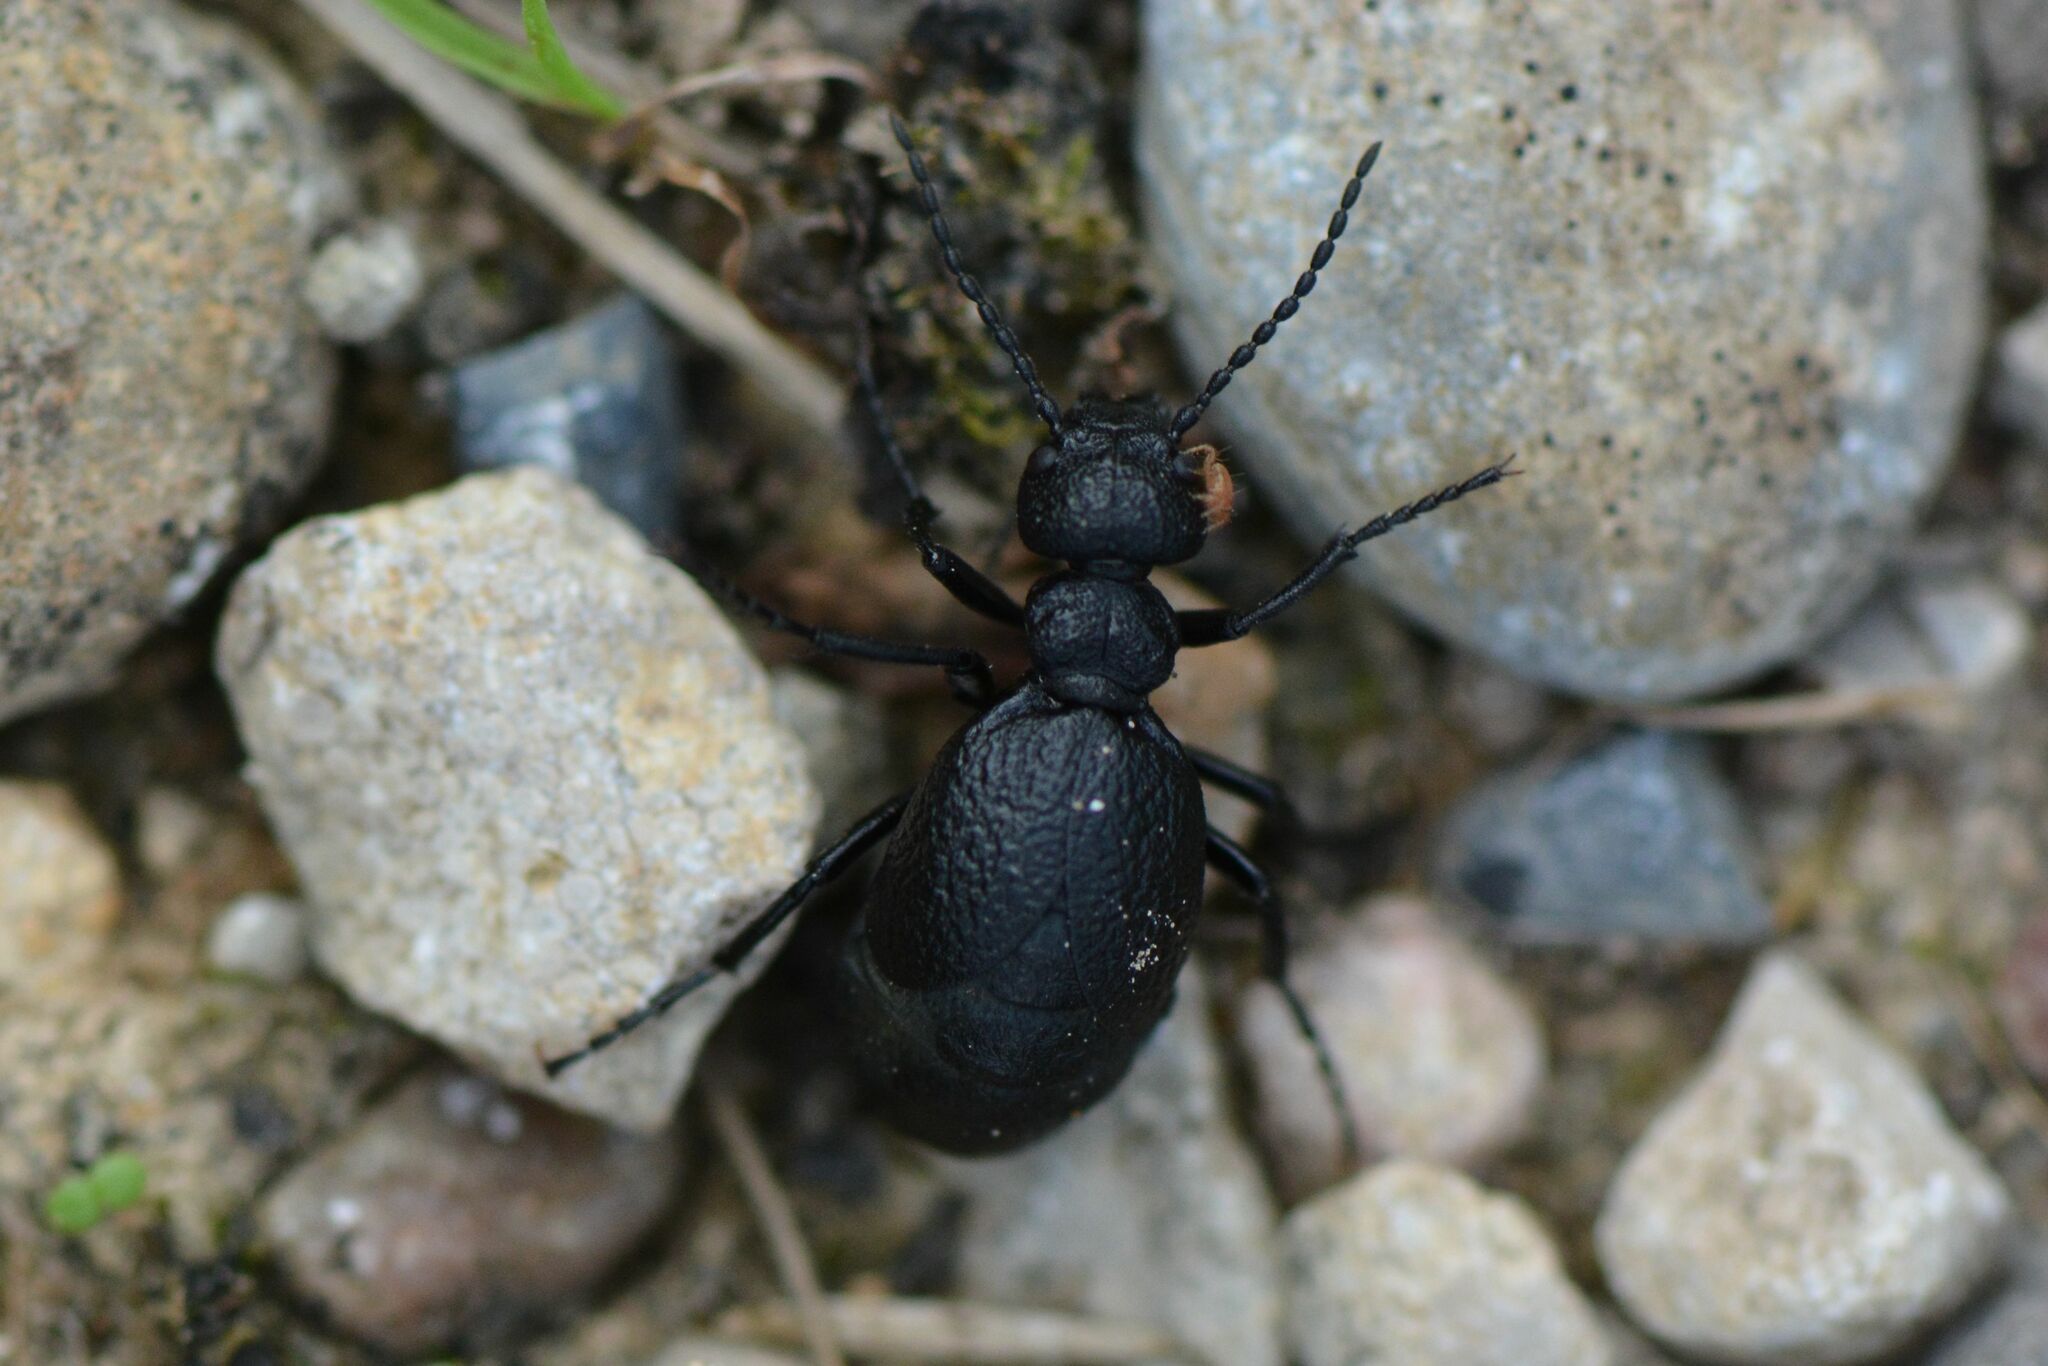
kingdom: Animalia
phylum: Arthropoda
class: Insecta
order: Coleoptera
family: Meloidae
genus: Meloe
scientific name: Meloe rugosus
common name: Rugged oil-beetle
